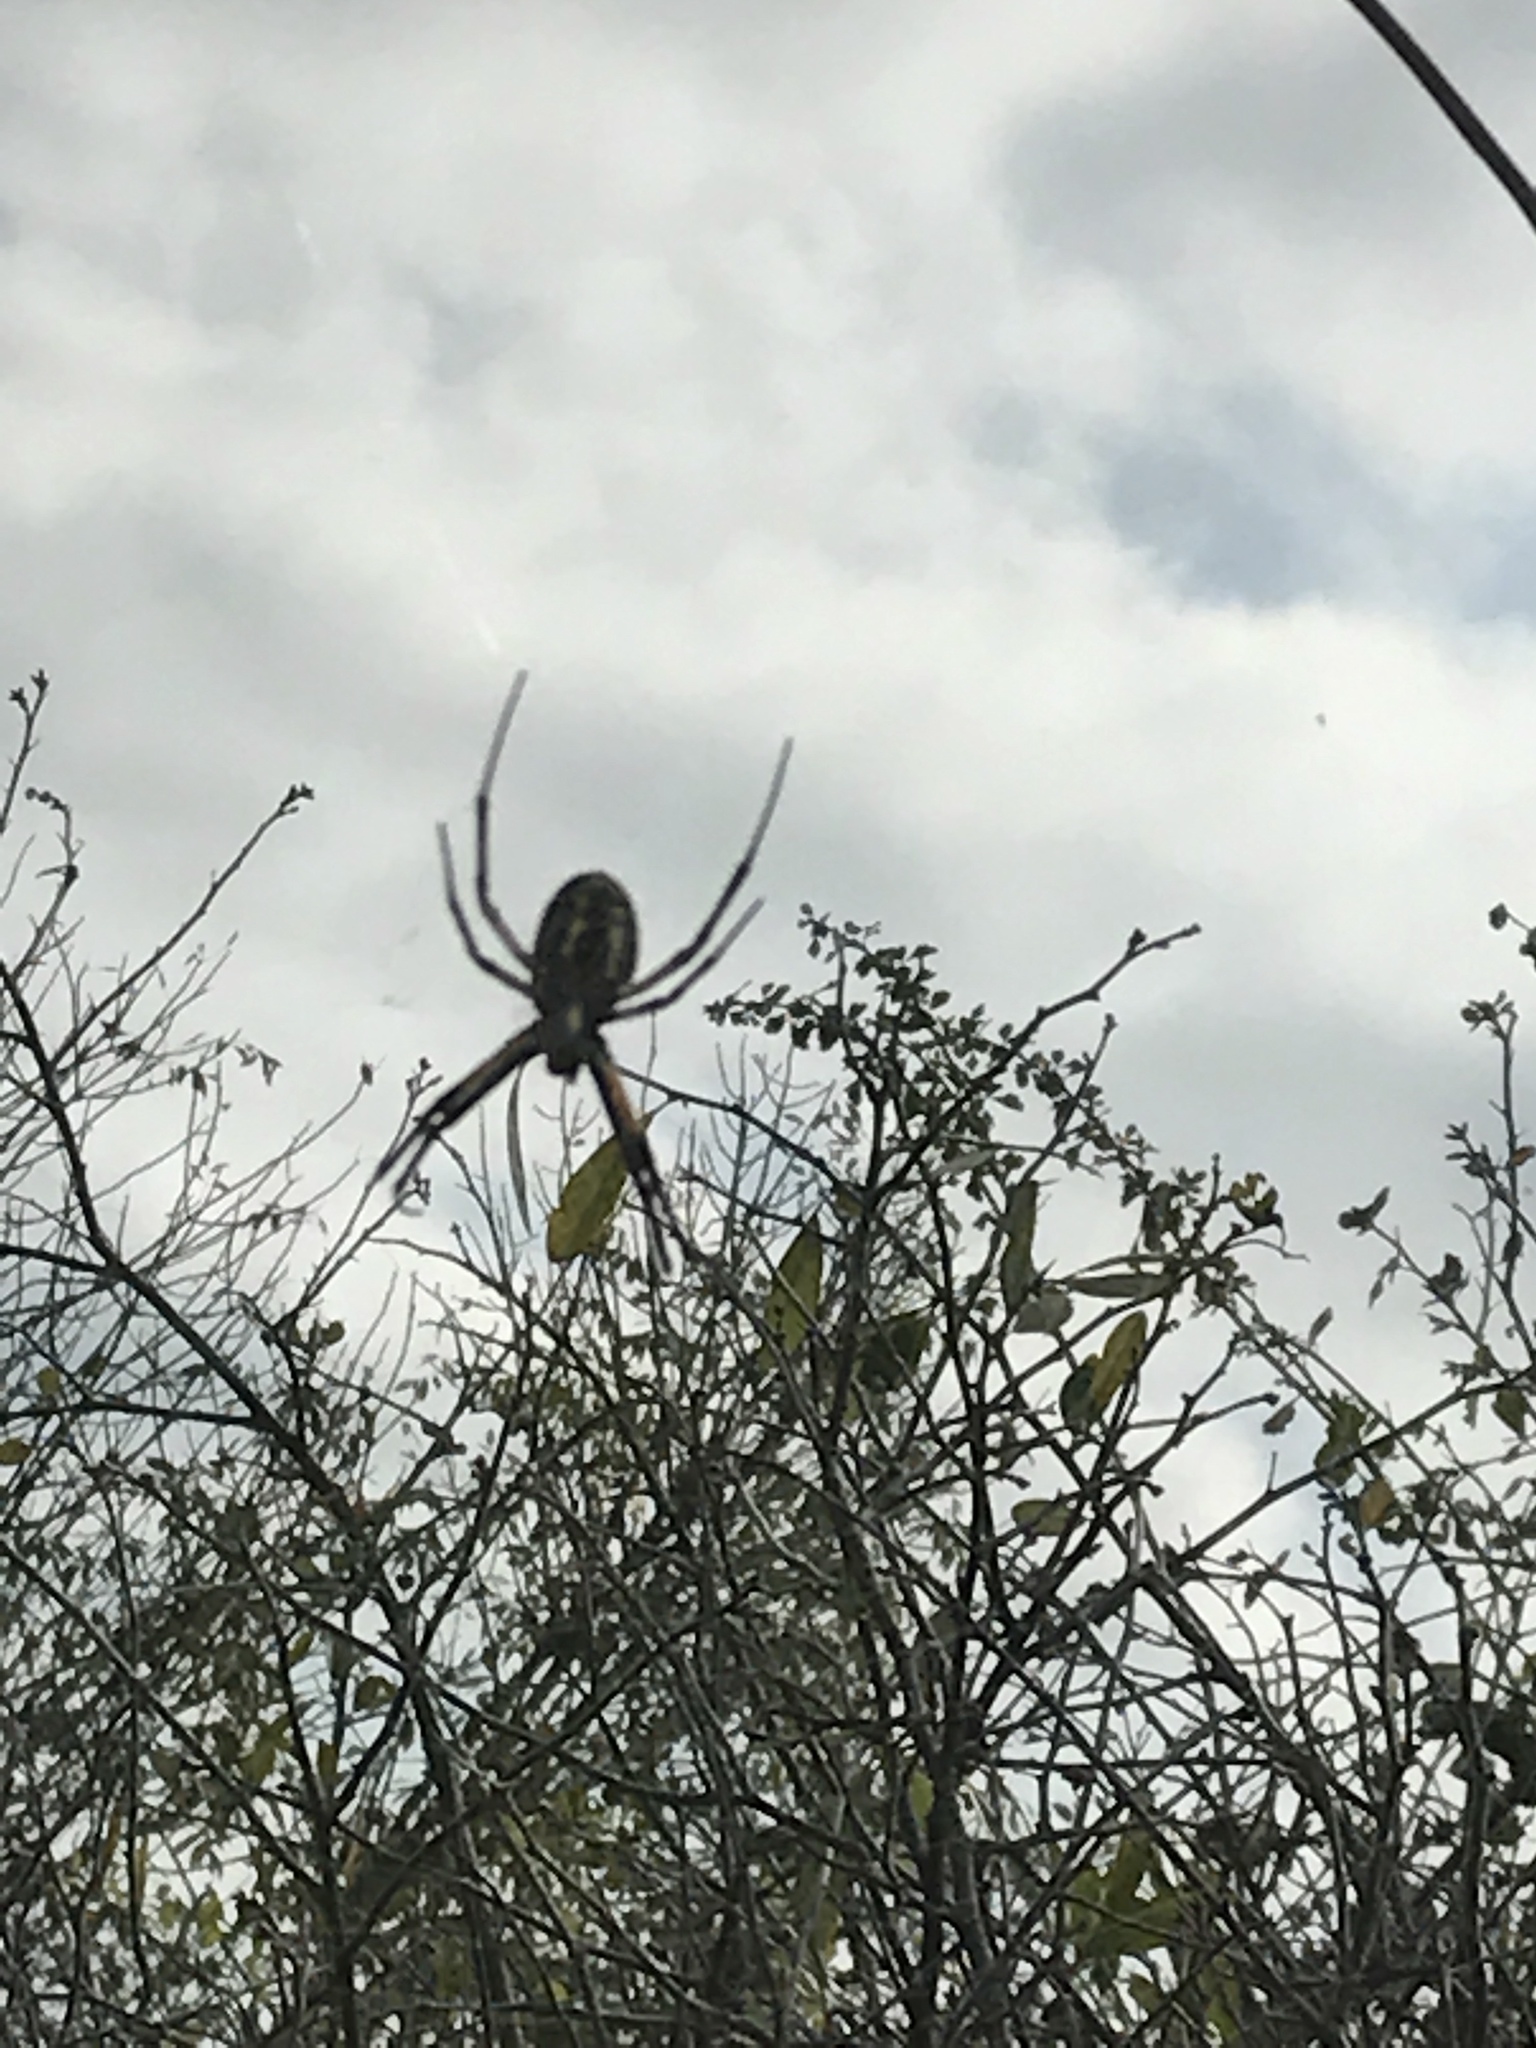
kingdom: Animalia
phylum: Arthropoda
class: Arachnida
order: Araneae
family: Araneidae
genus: Argiope
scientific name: Argiope aurantia
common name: Orb weavers
